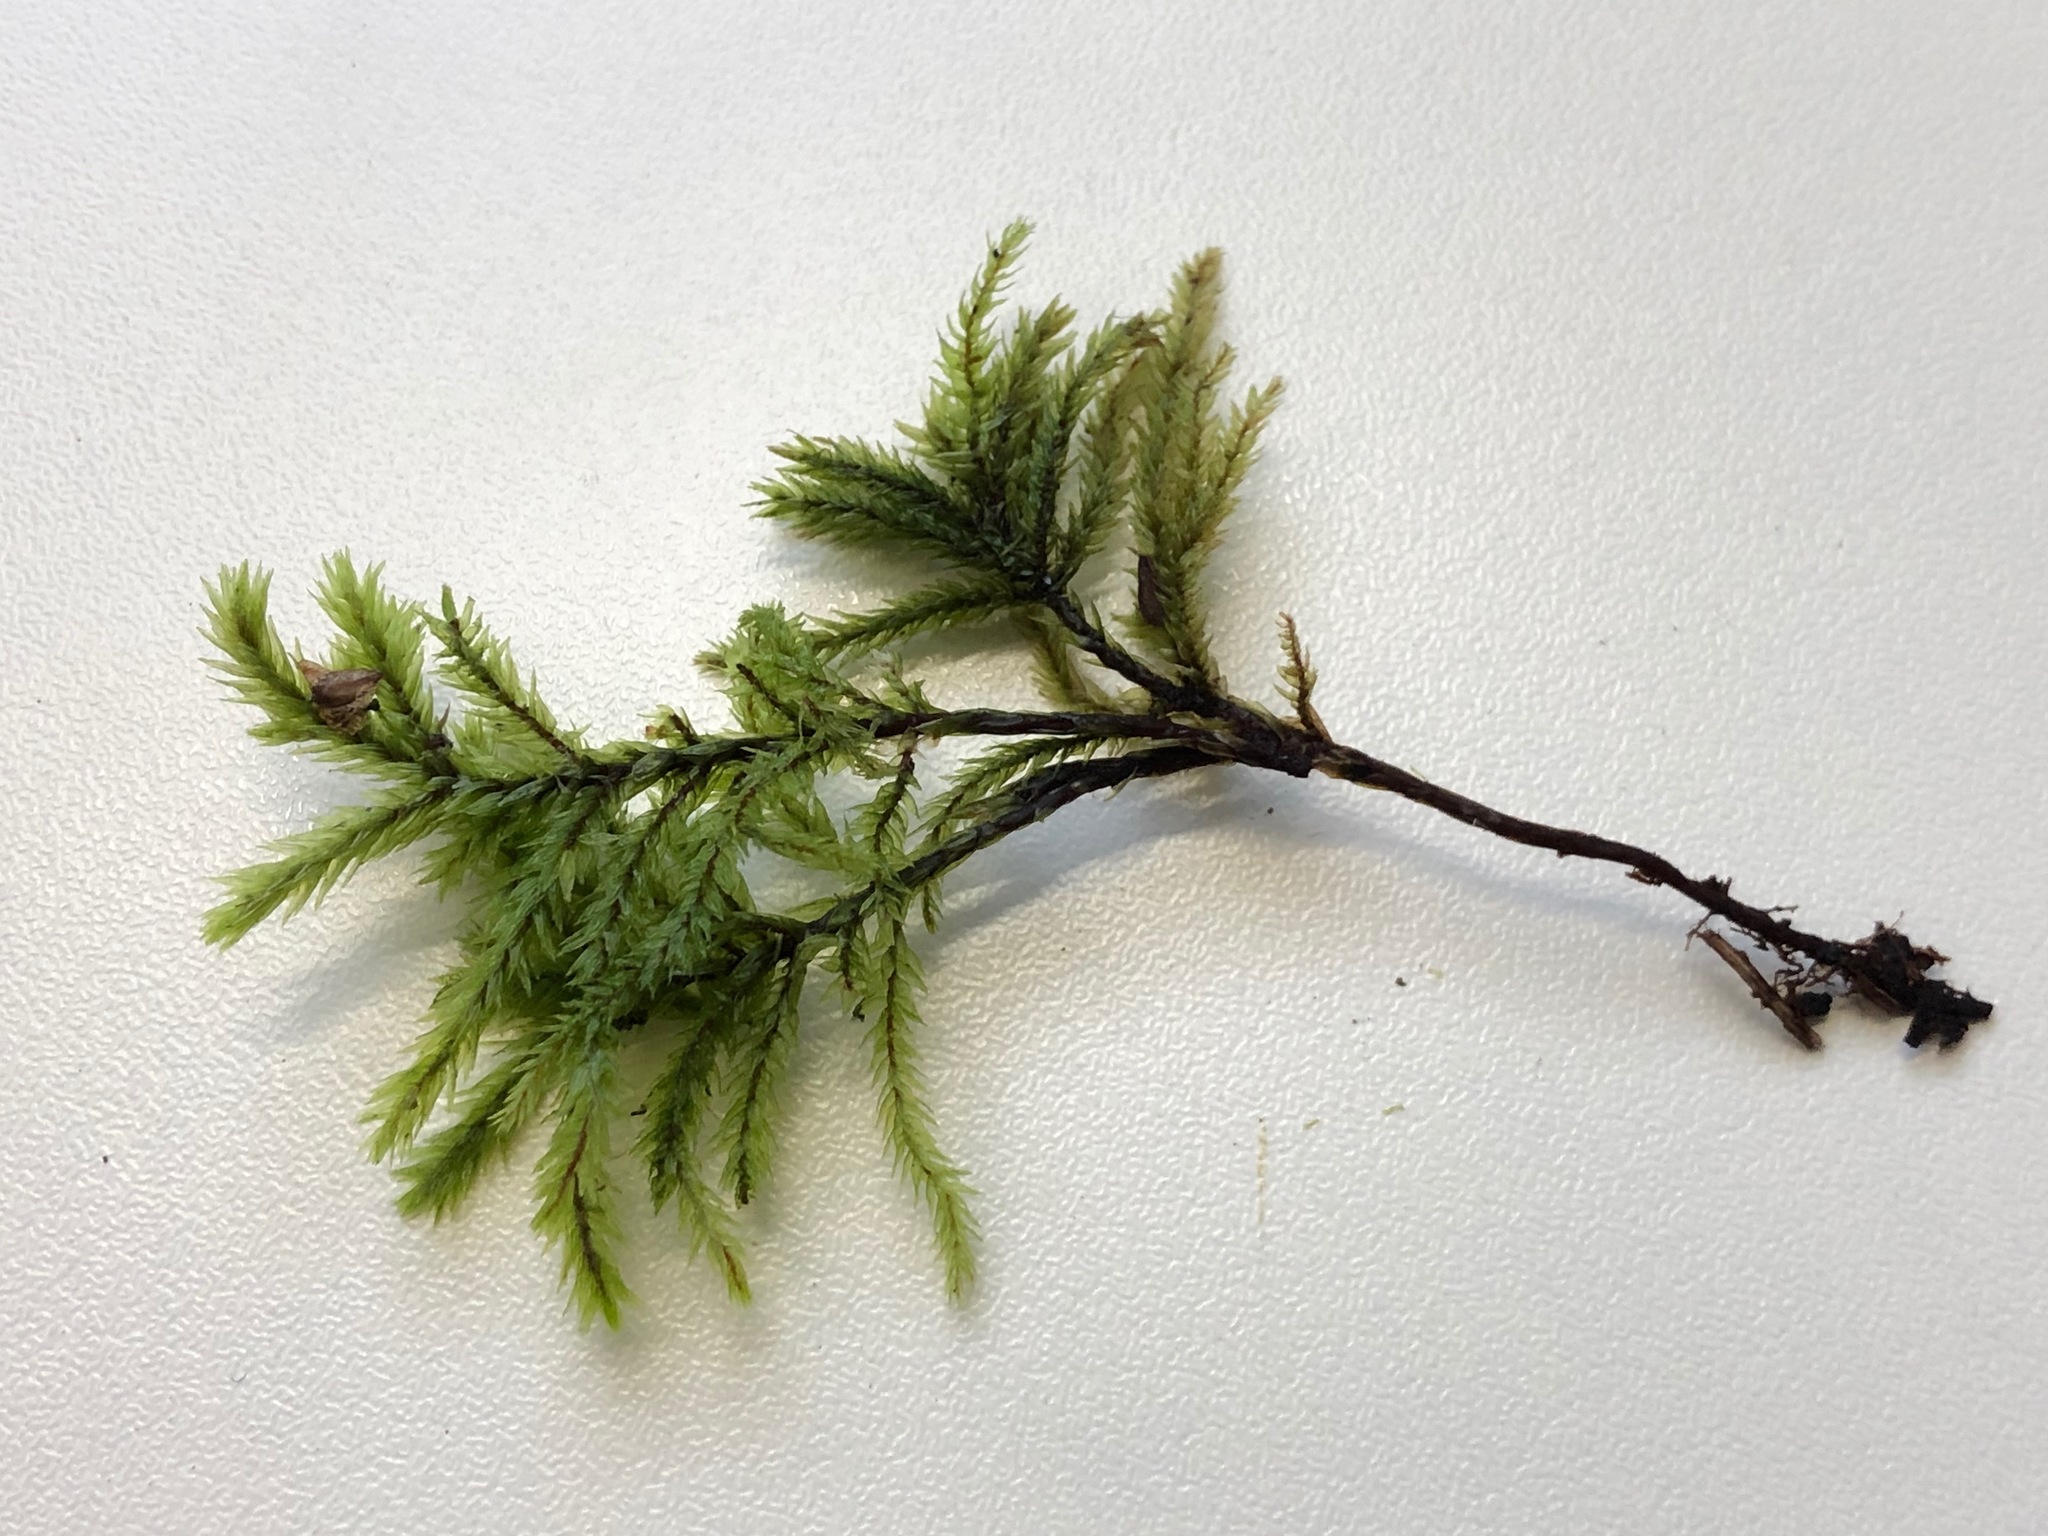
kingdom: Plantae
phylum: Bryophyta
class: Bryopsida
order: Hypnales
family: Climaciaceae
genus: Climacium
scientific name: Climacium dendroides
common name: Northern tree moss
